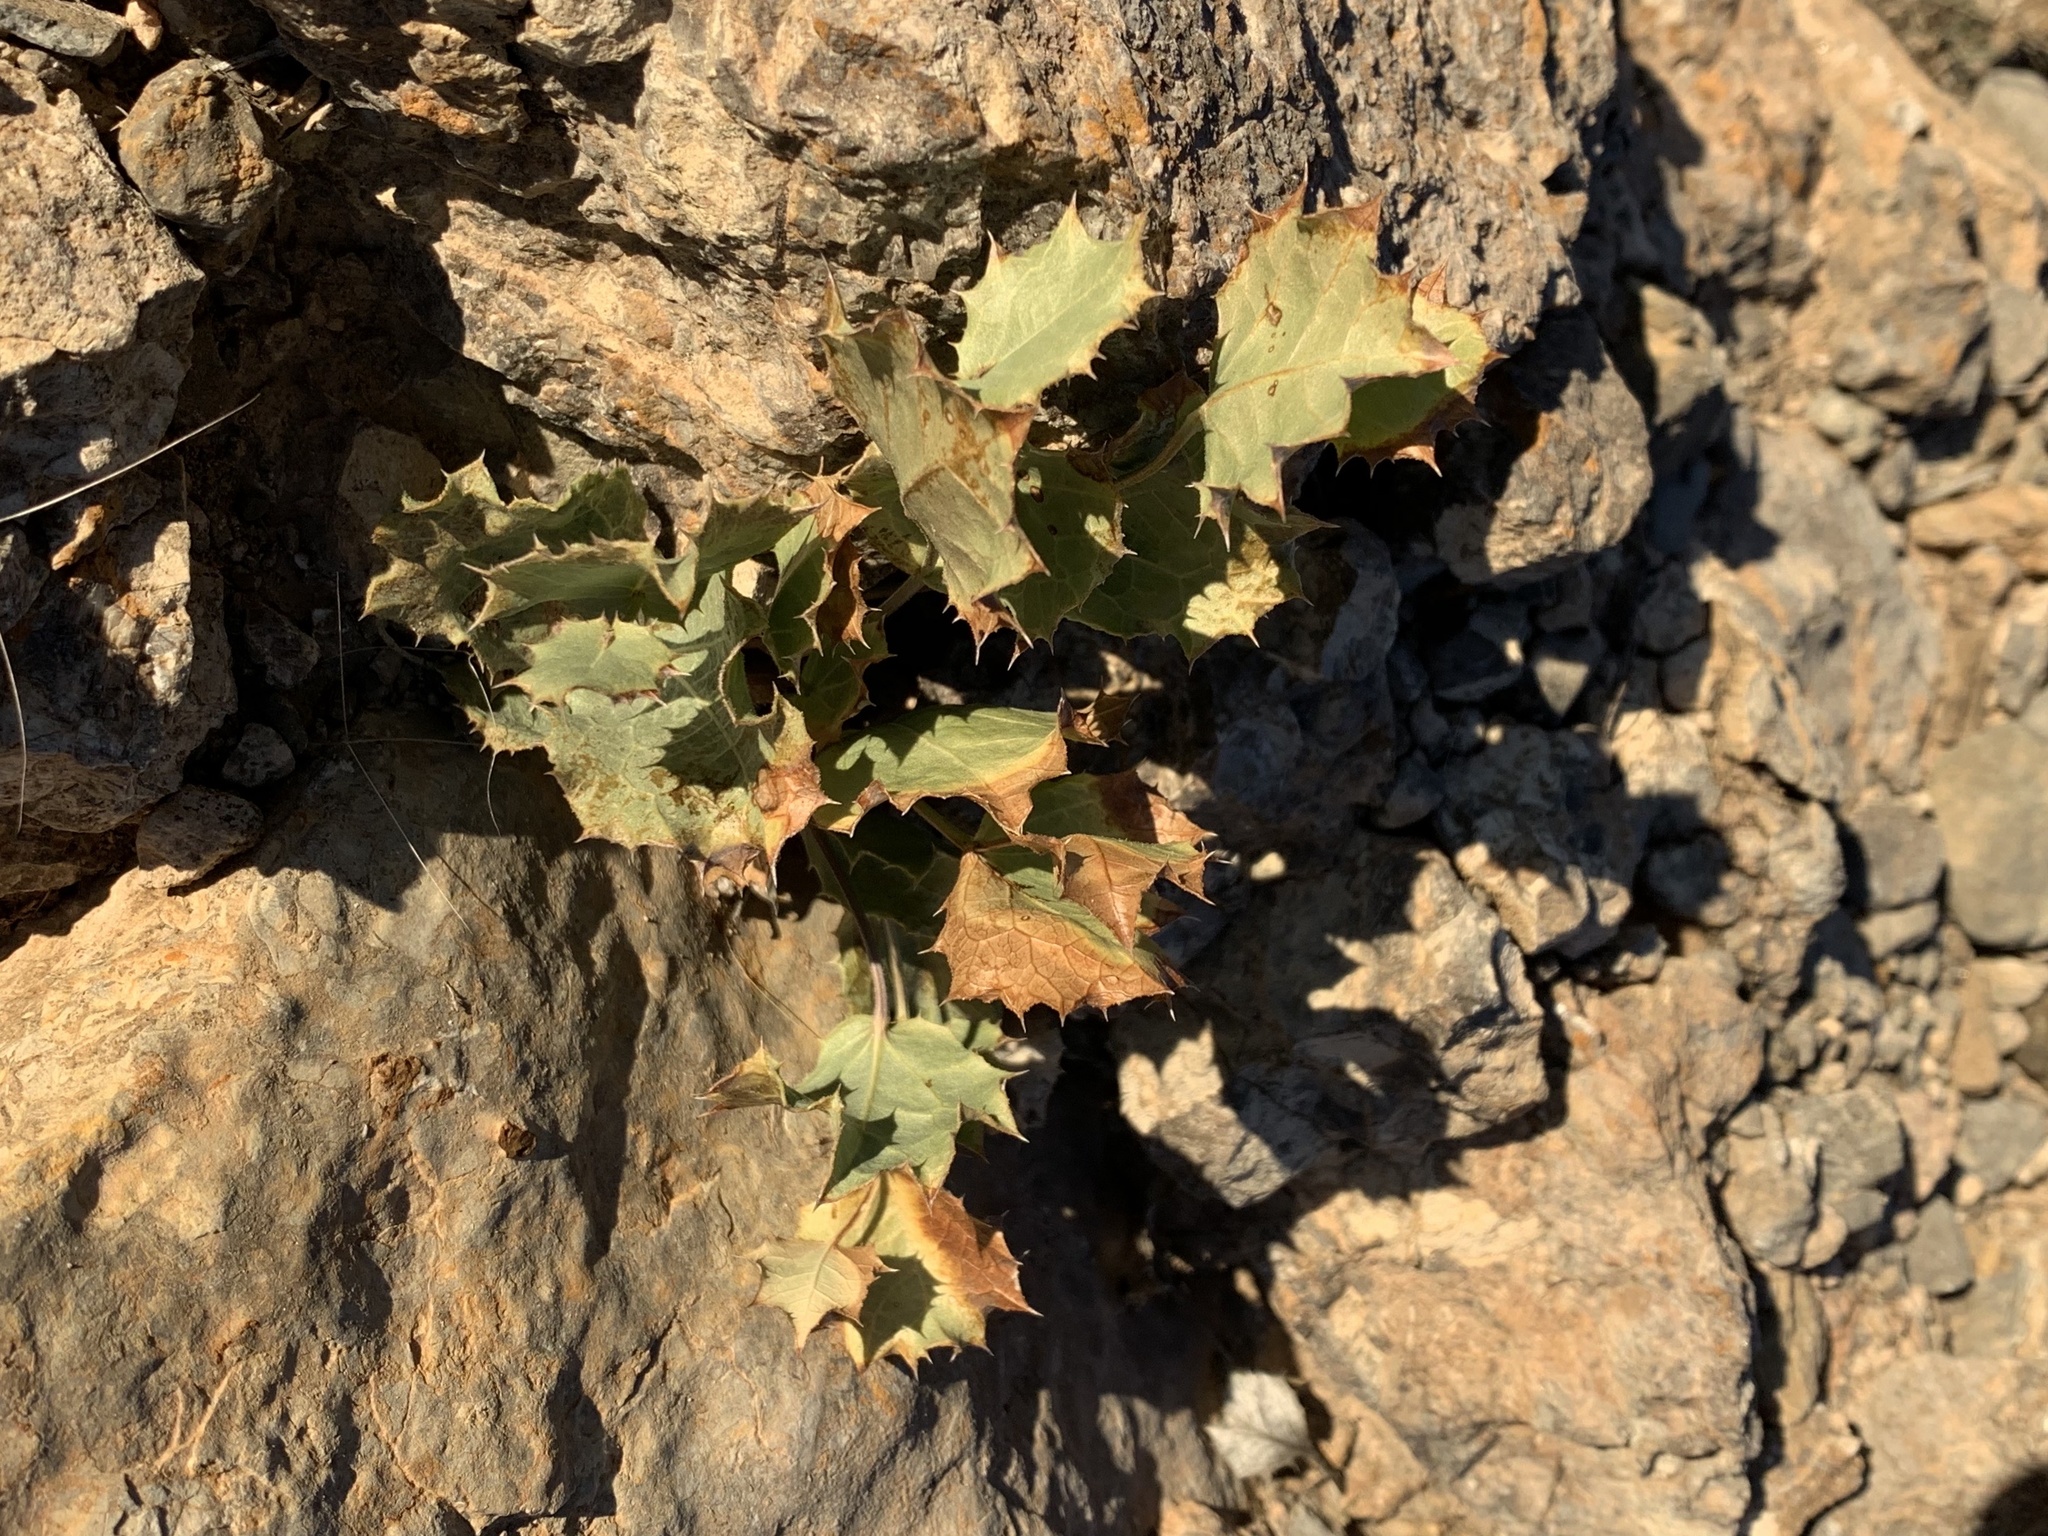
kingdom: Plantae
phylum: Tracheophyta
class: Magnoliopsida
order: Asterales
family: Asteraceae
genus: Acourtia
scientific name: Acourtia nana
